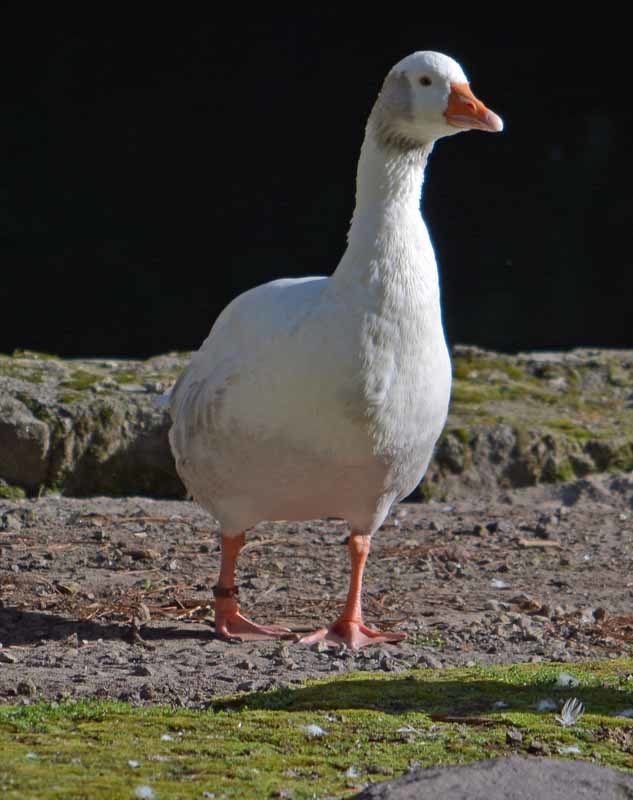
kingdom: Animalia
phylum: Chordata
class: Aves
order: Anseriformes
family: Anatidae
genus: Anser
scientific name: Anser anser
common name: Greylag goose
